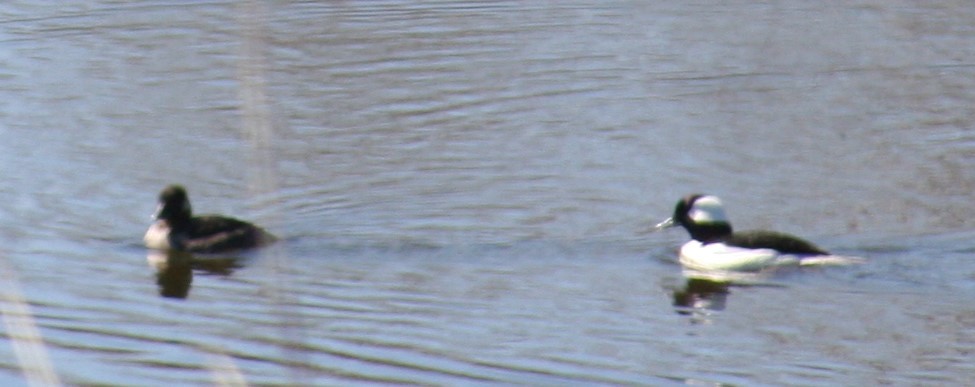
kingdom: Animalia
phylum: Chordata
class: Aves
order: Anseriformes
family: Anatidae
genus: Bucephala
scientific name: Bucephala albeola
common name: Bufflehead
